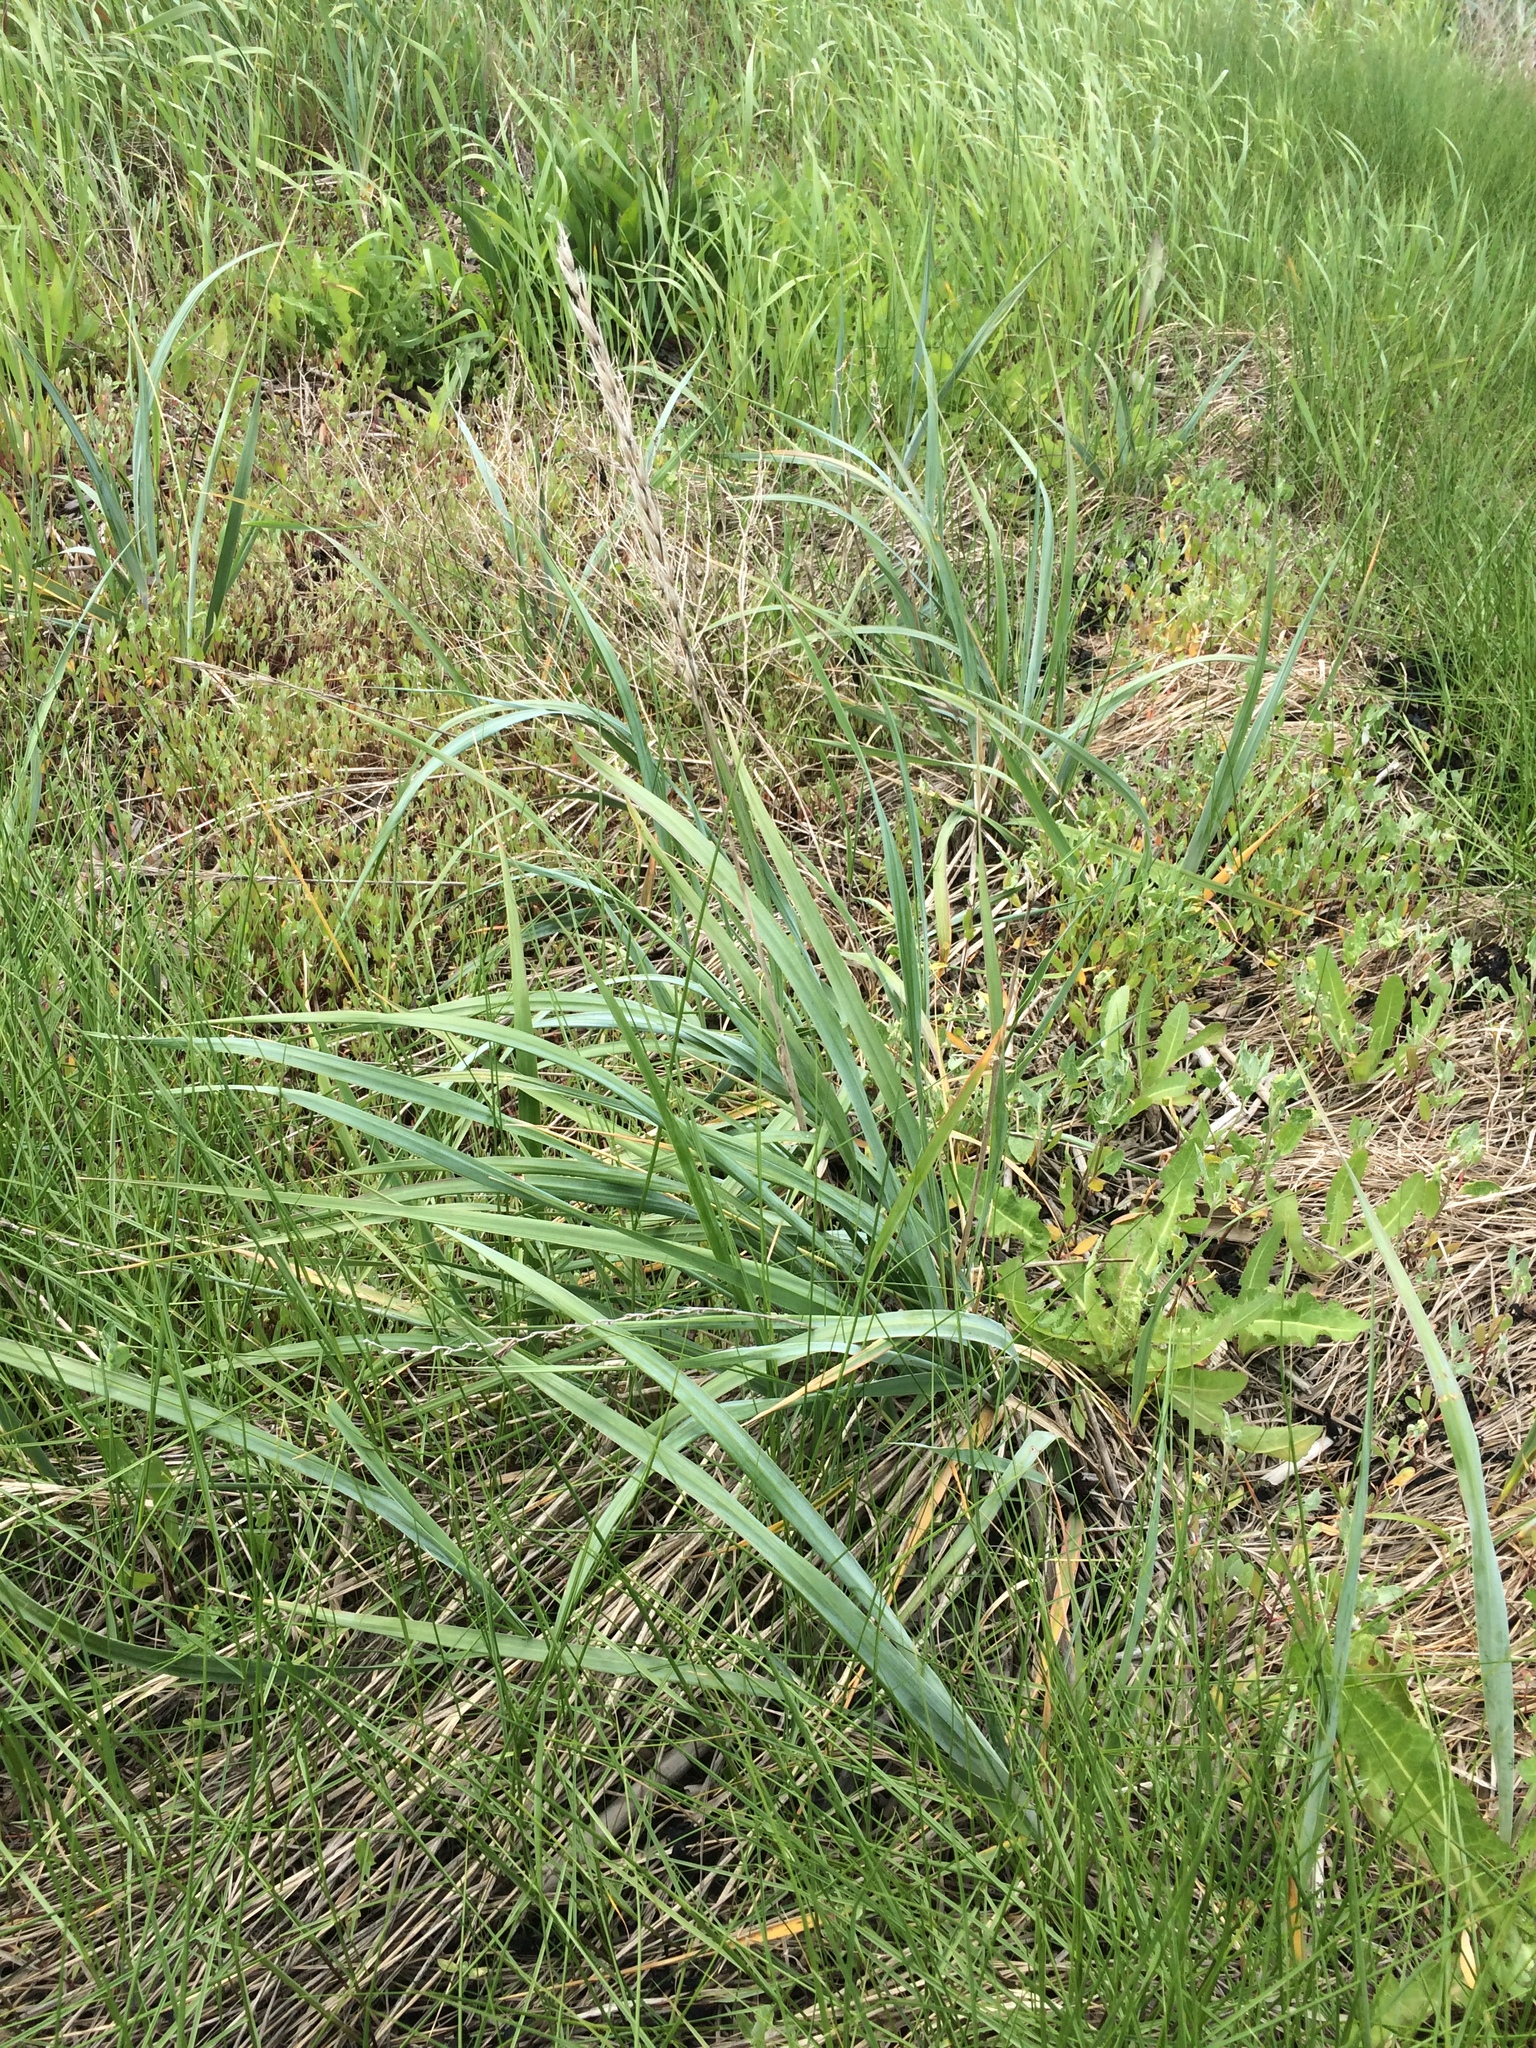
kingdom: Plantae
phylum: Tracheophyta
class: Liliopsida
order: Poales
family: Poaceae
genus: Leymus
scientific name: Leymus mollis
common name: American dune grass
